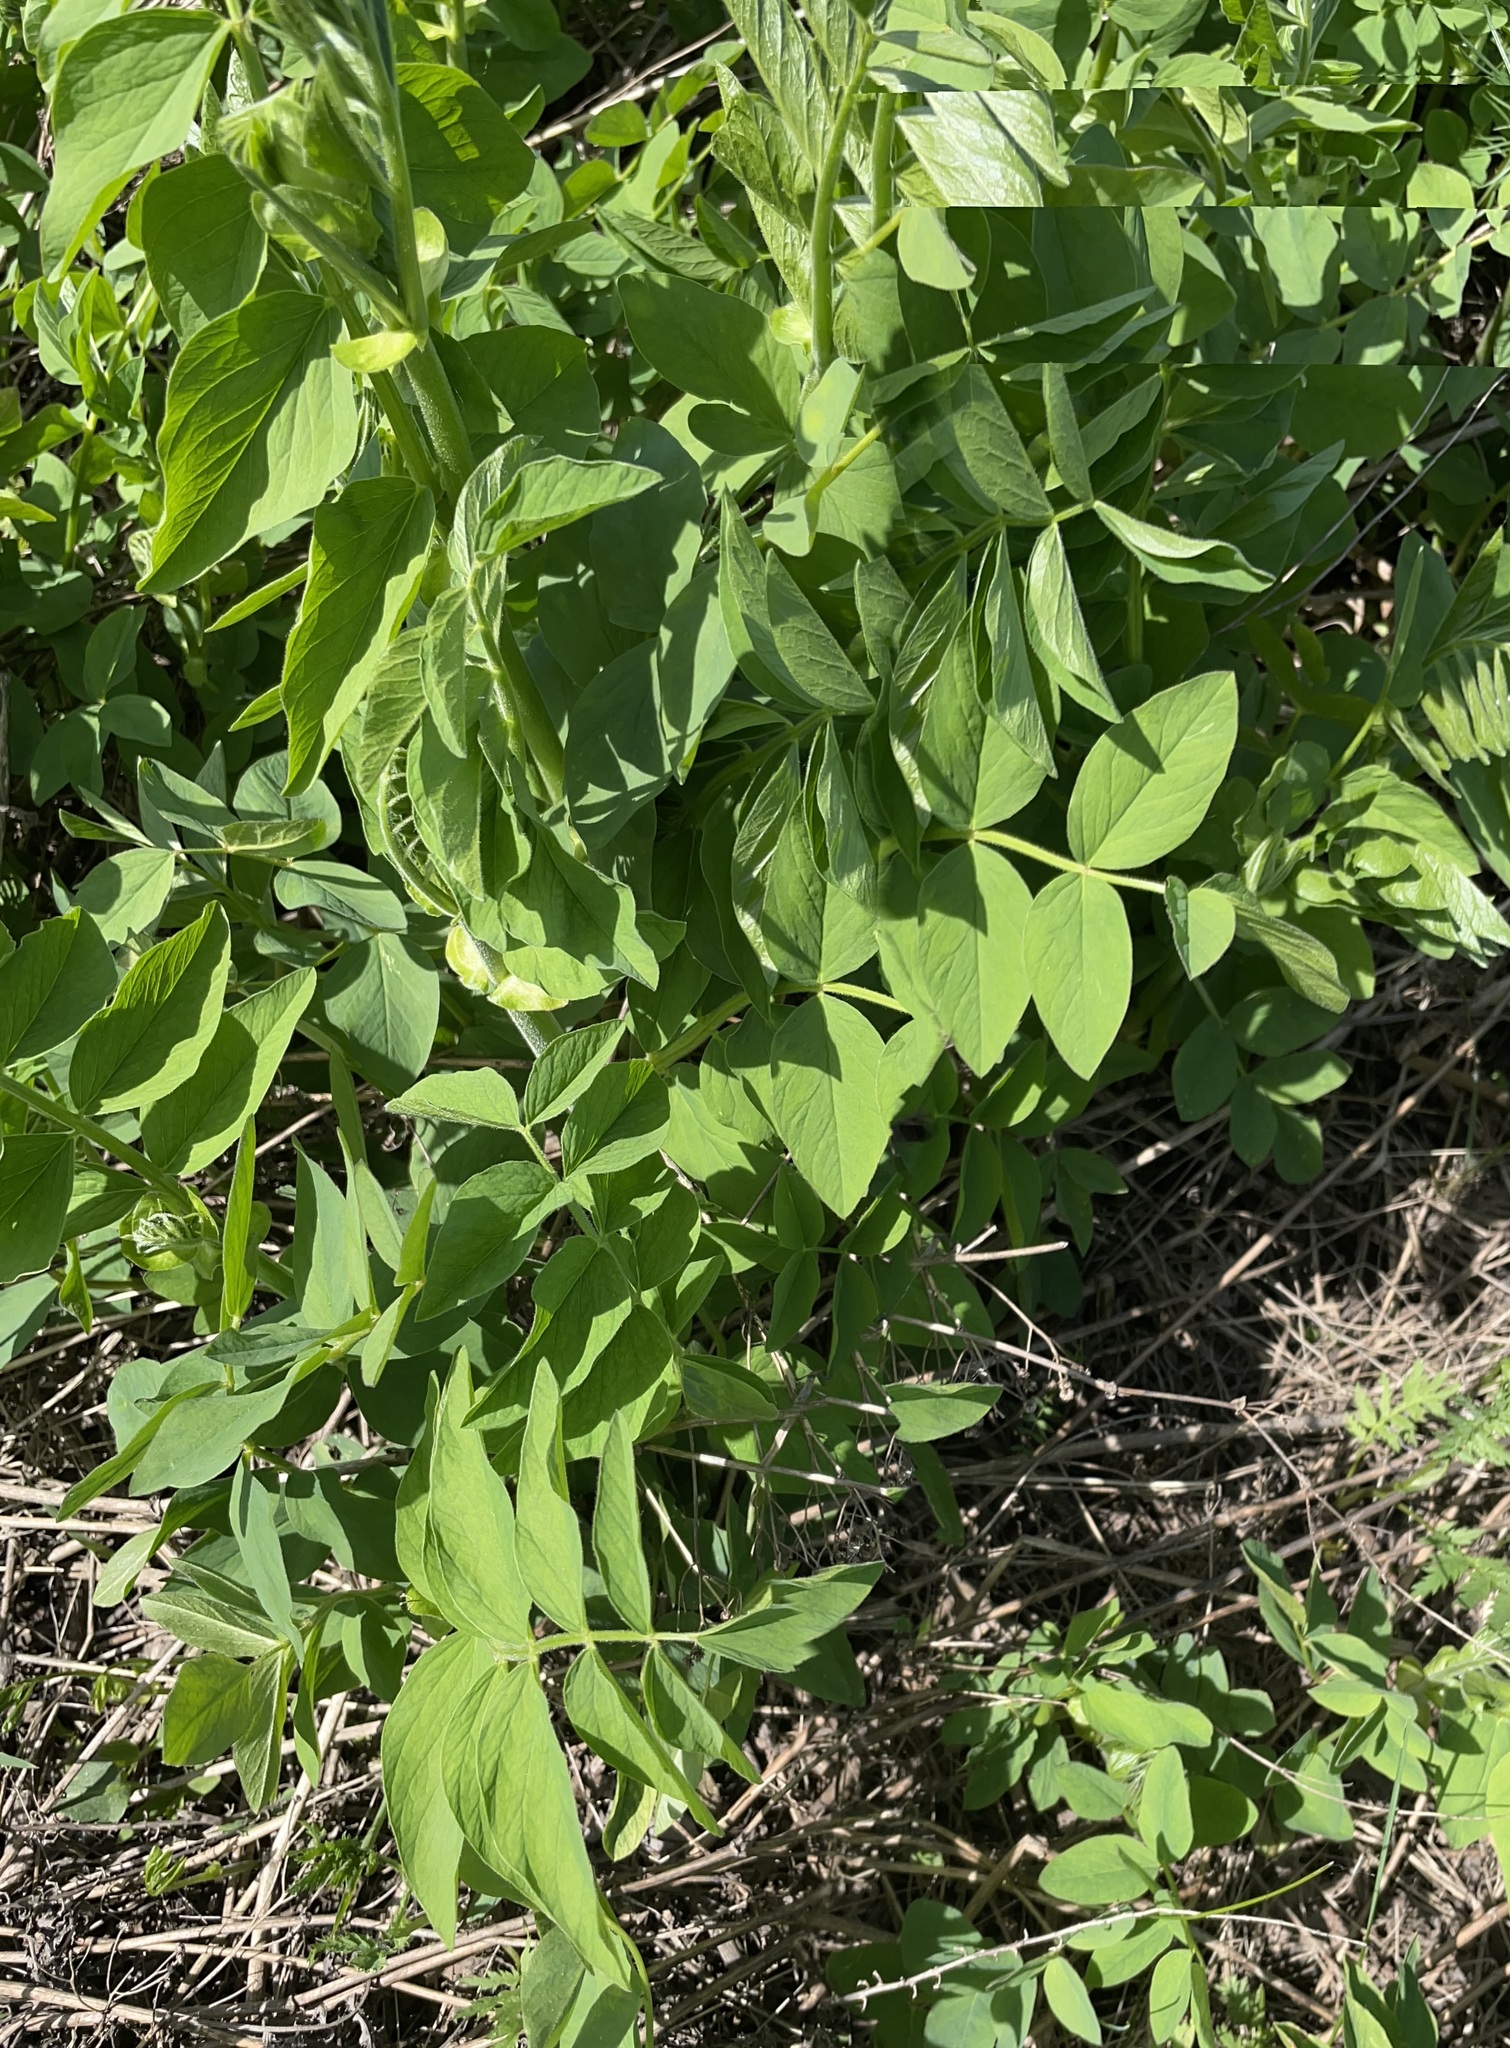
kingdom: Plantae
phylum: Tracheophyta
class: Magnoliopsida
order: Fabales
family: Fabaceae
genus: Galega
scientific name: Galega orientalis
